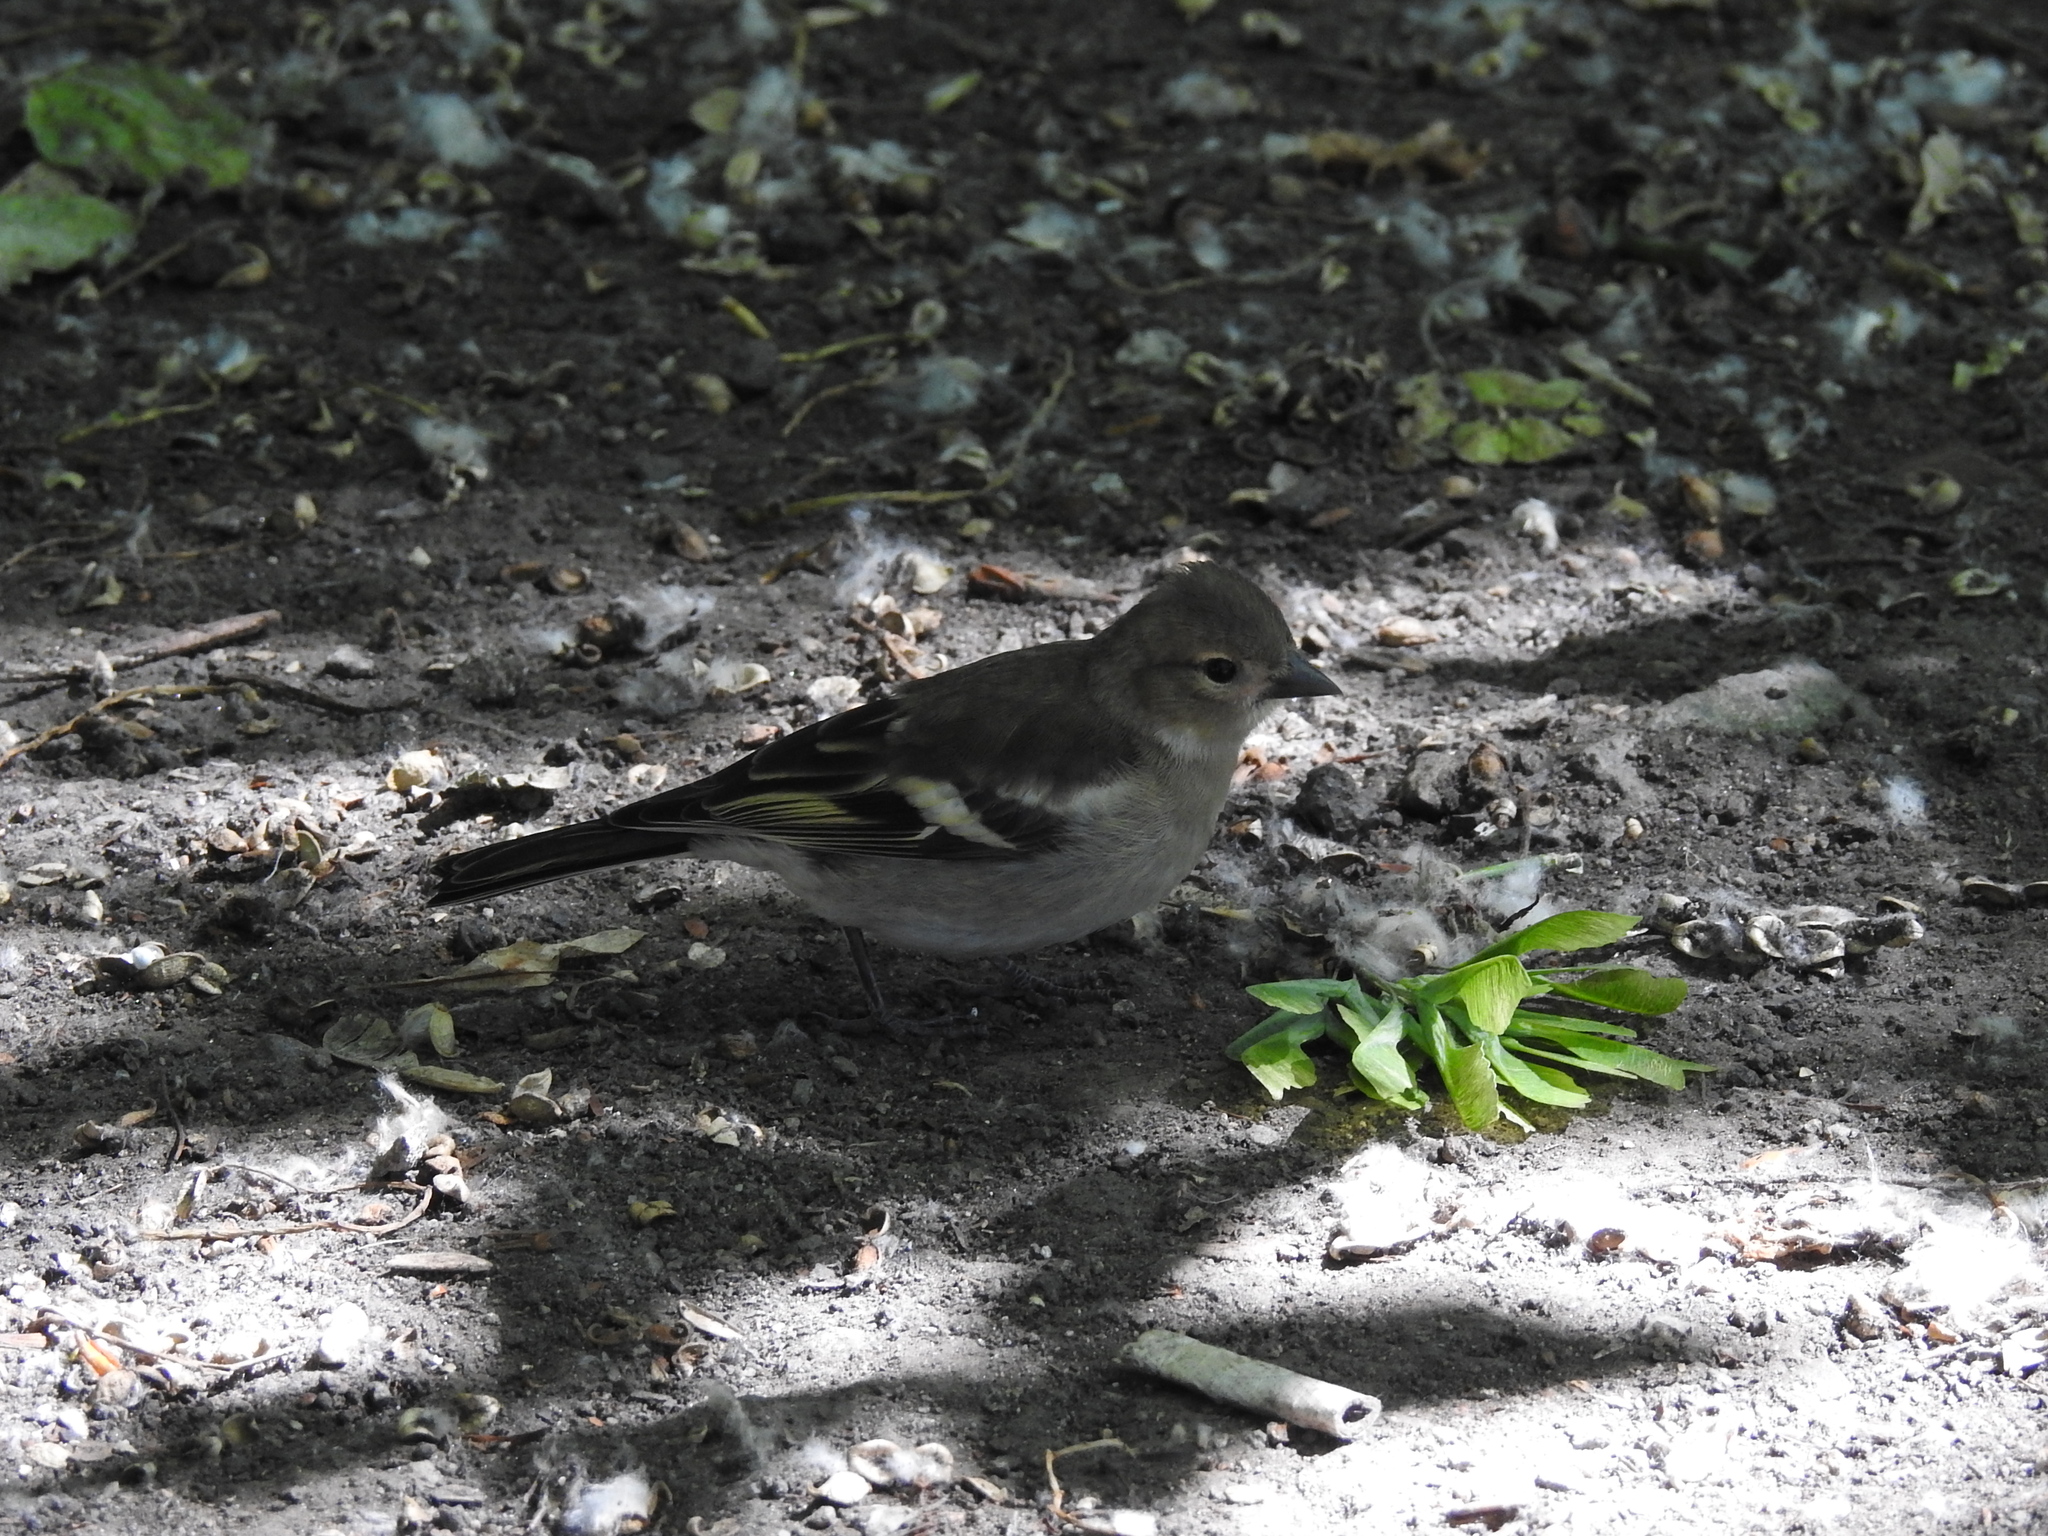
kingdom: Animalia
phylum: Chordata
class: Aves
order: Passeriformes
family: Fringillidae
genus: Fringilla
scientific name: Fringilla coelebs
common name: Common chaffinch
